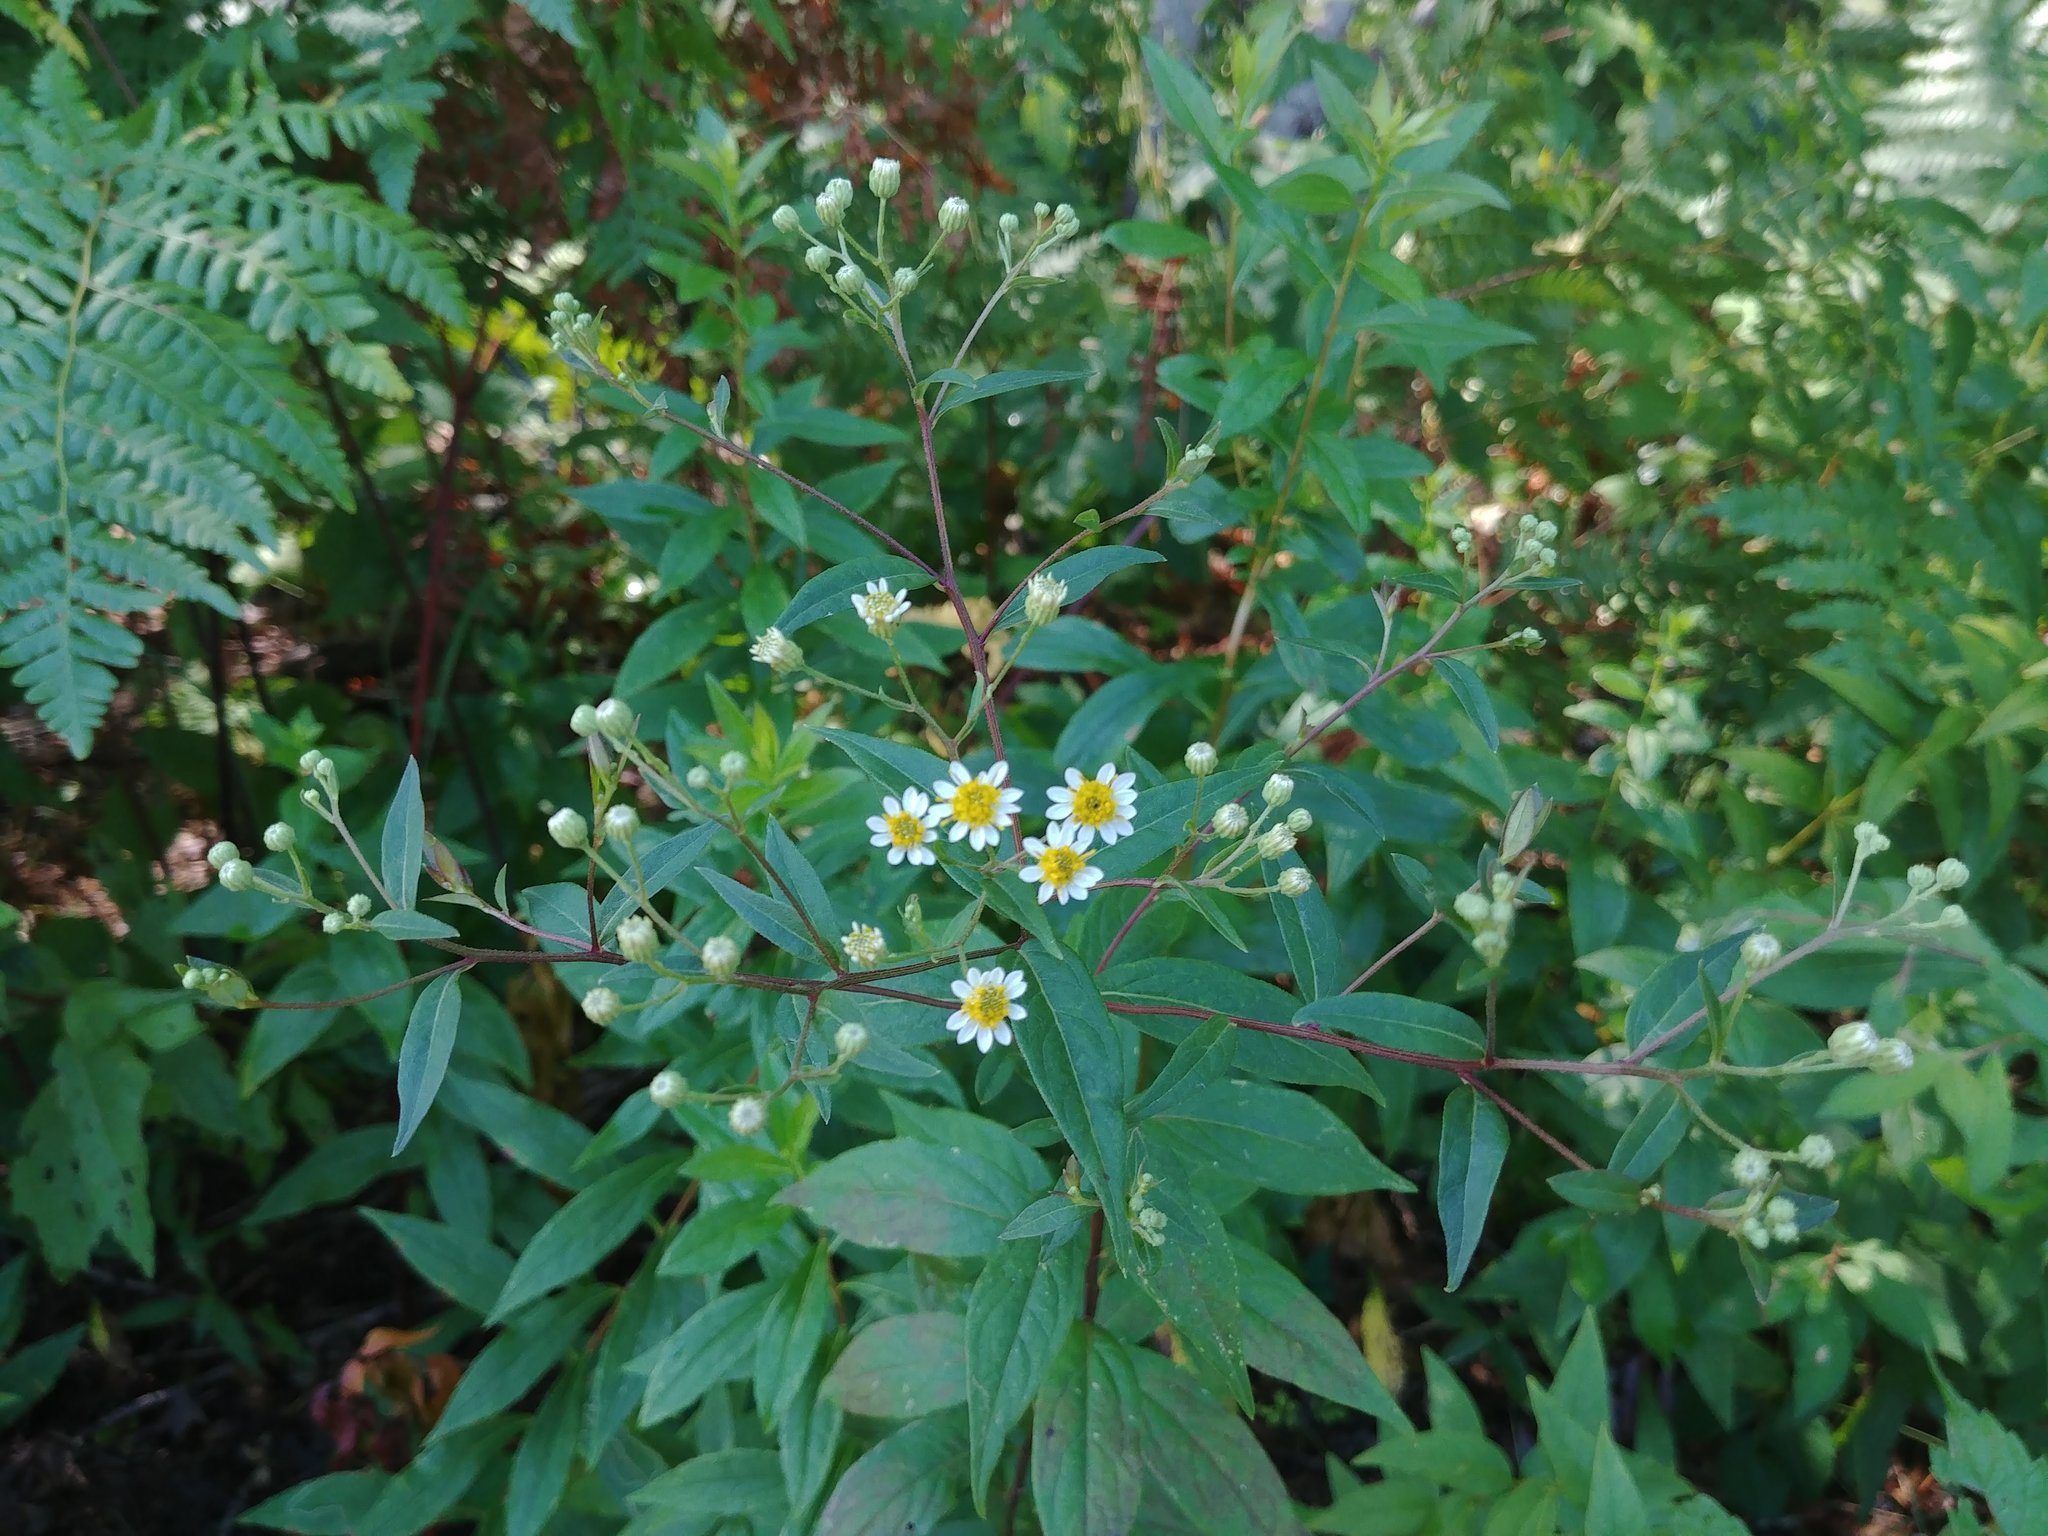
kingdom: Plantae
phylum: Tracheophyta
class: Magnoliopsida
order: Asterales
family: Asteraceae
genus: Doellingeria
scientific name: Doellingeria umbellata
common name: Flat-top white aster
